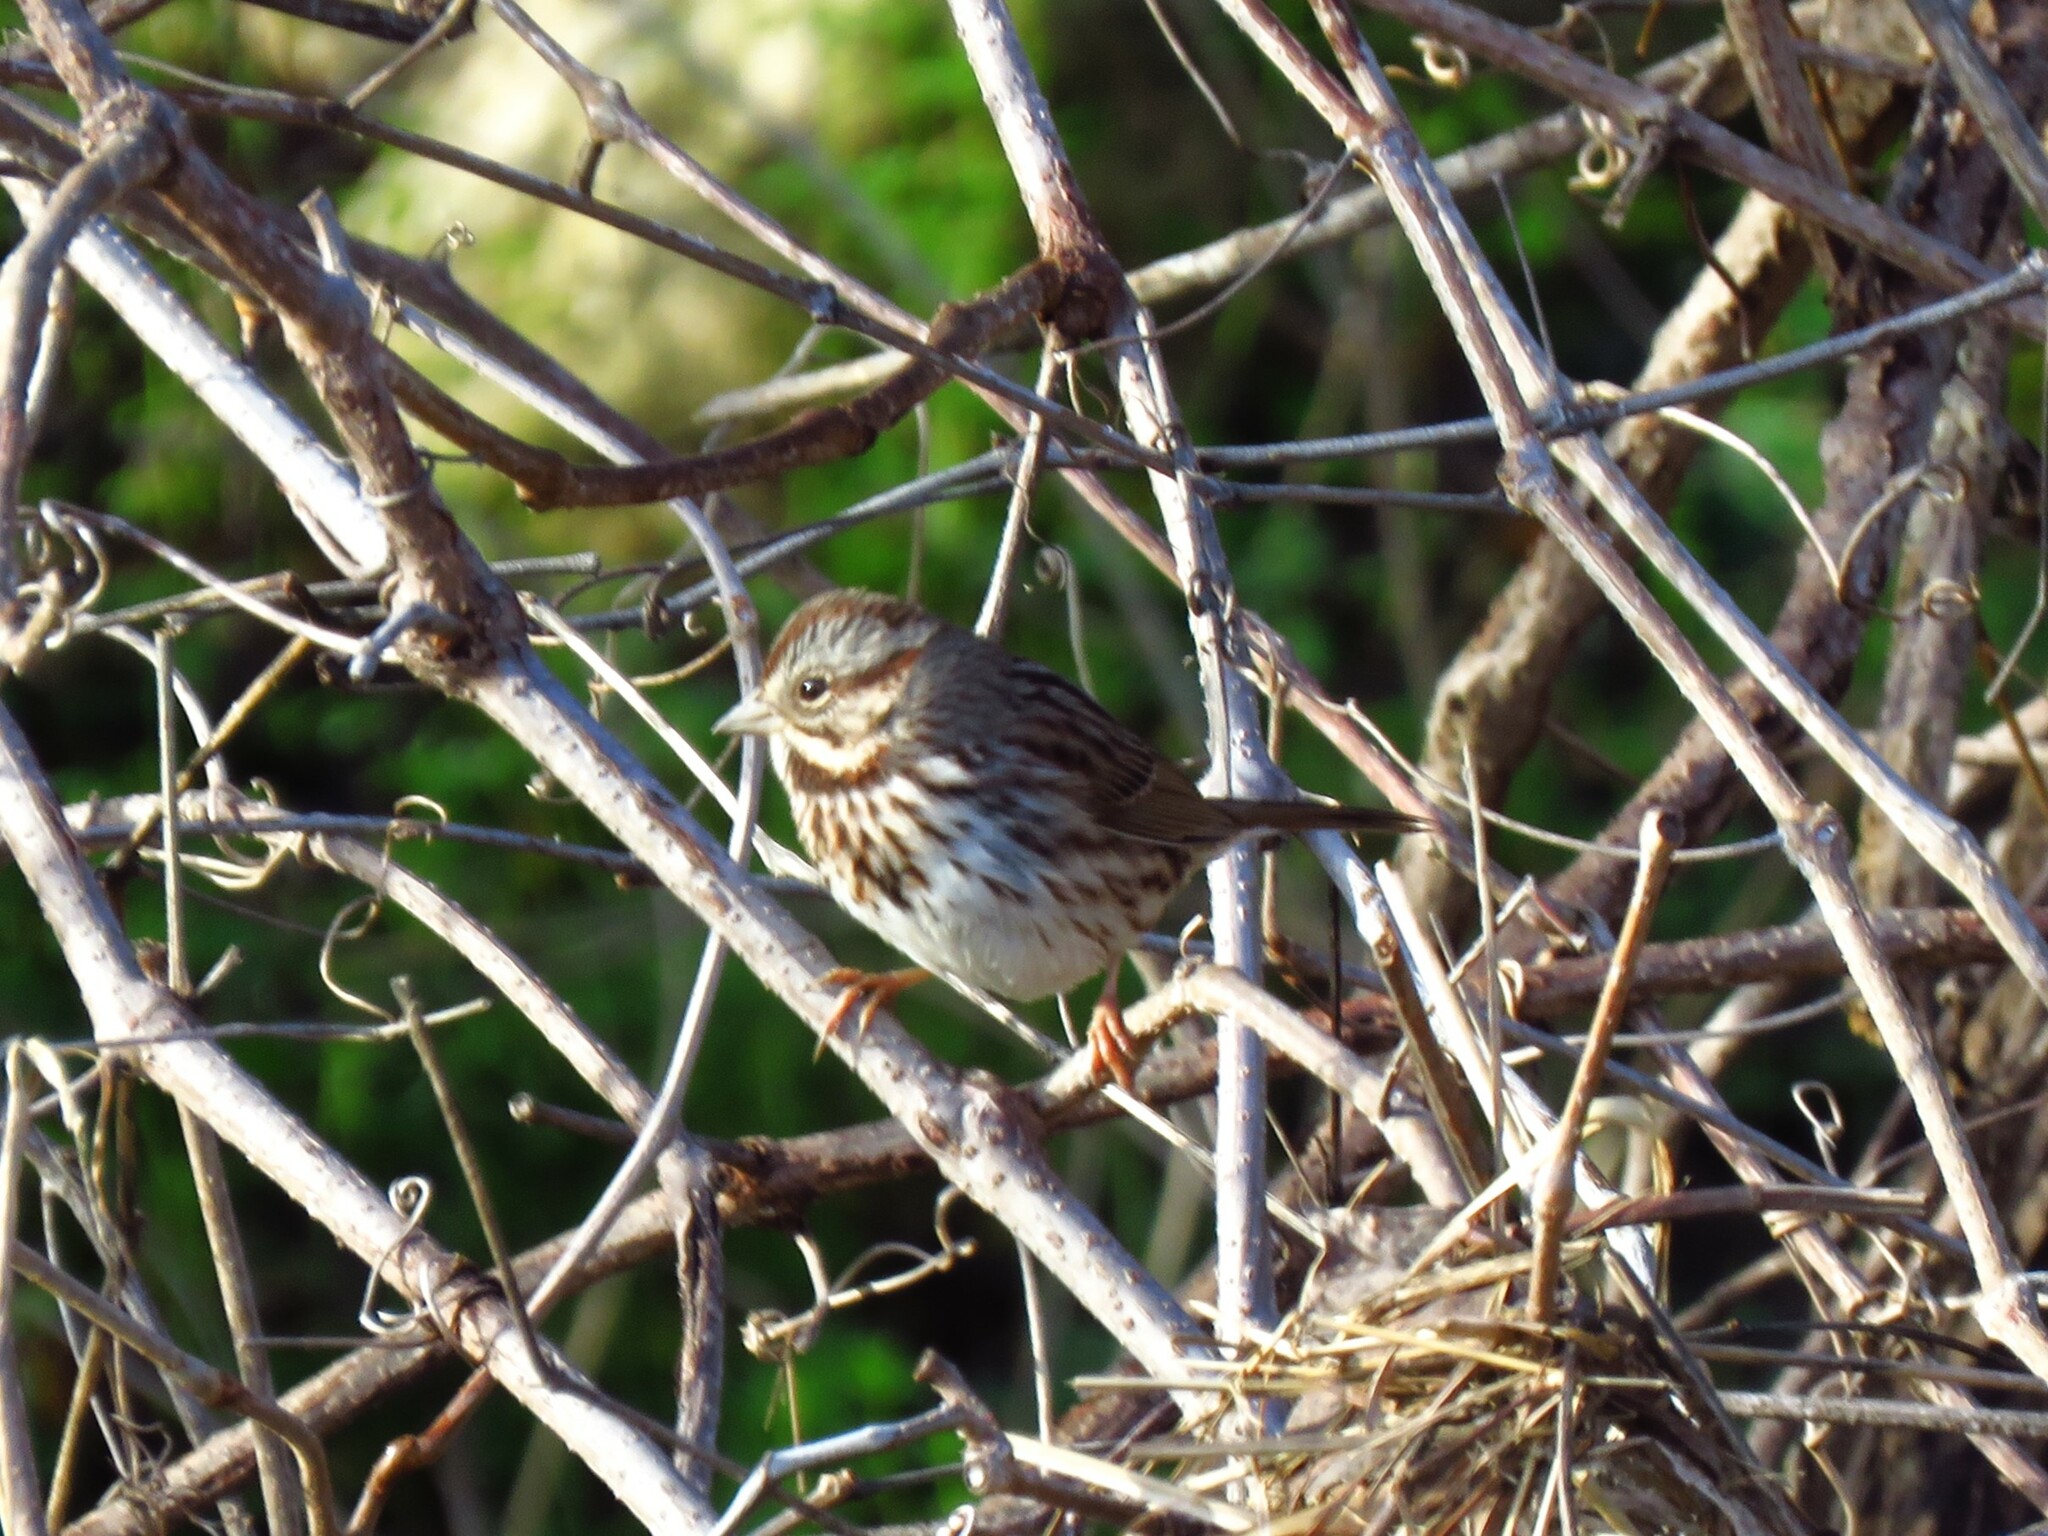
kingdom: Animalia
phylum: Chordata
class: Aves
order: Passeriformes
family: Passerellidae
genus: Melospiza
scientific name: Melospiza melodia
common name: Song sparrow
